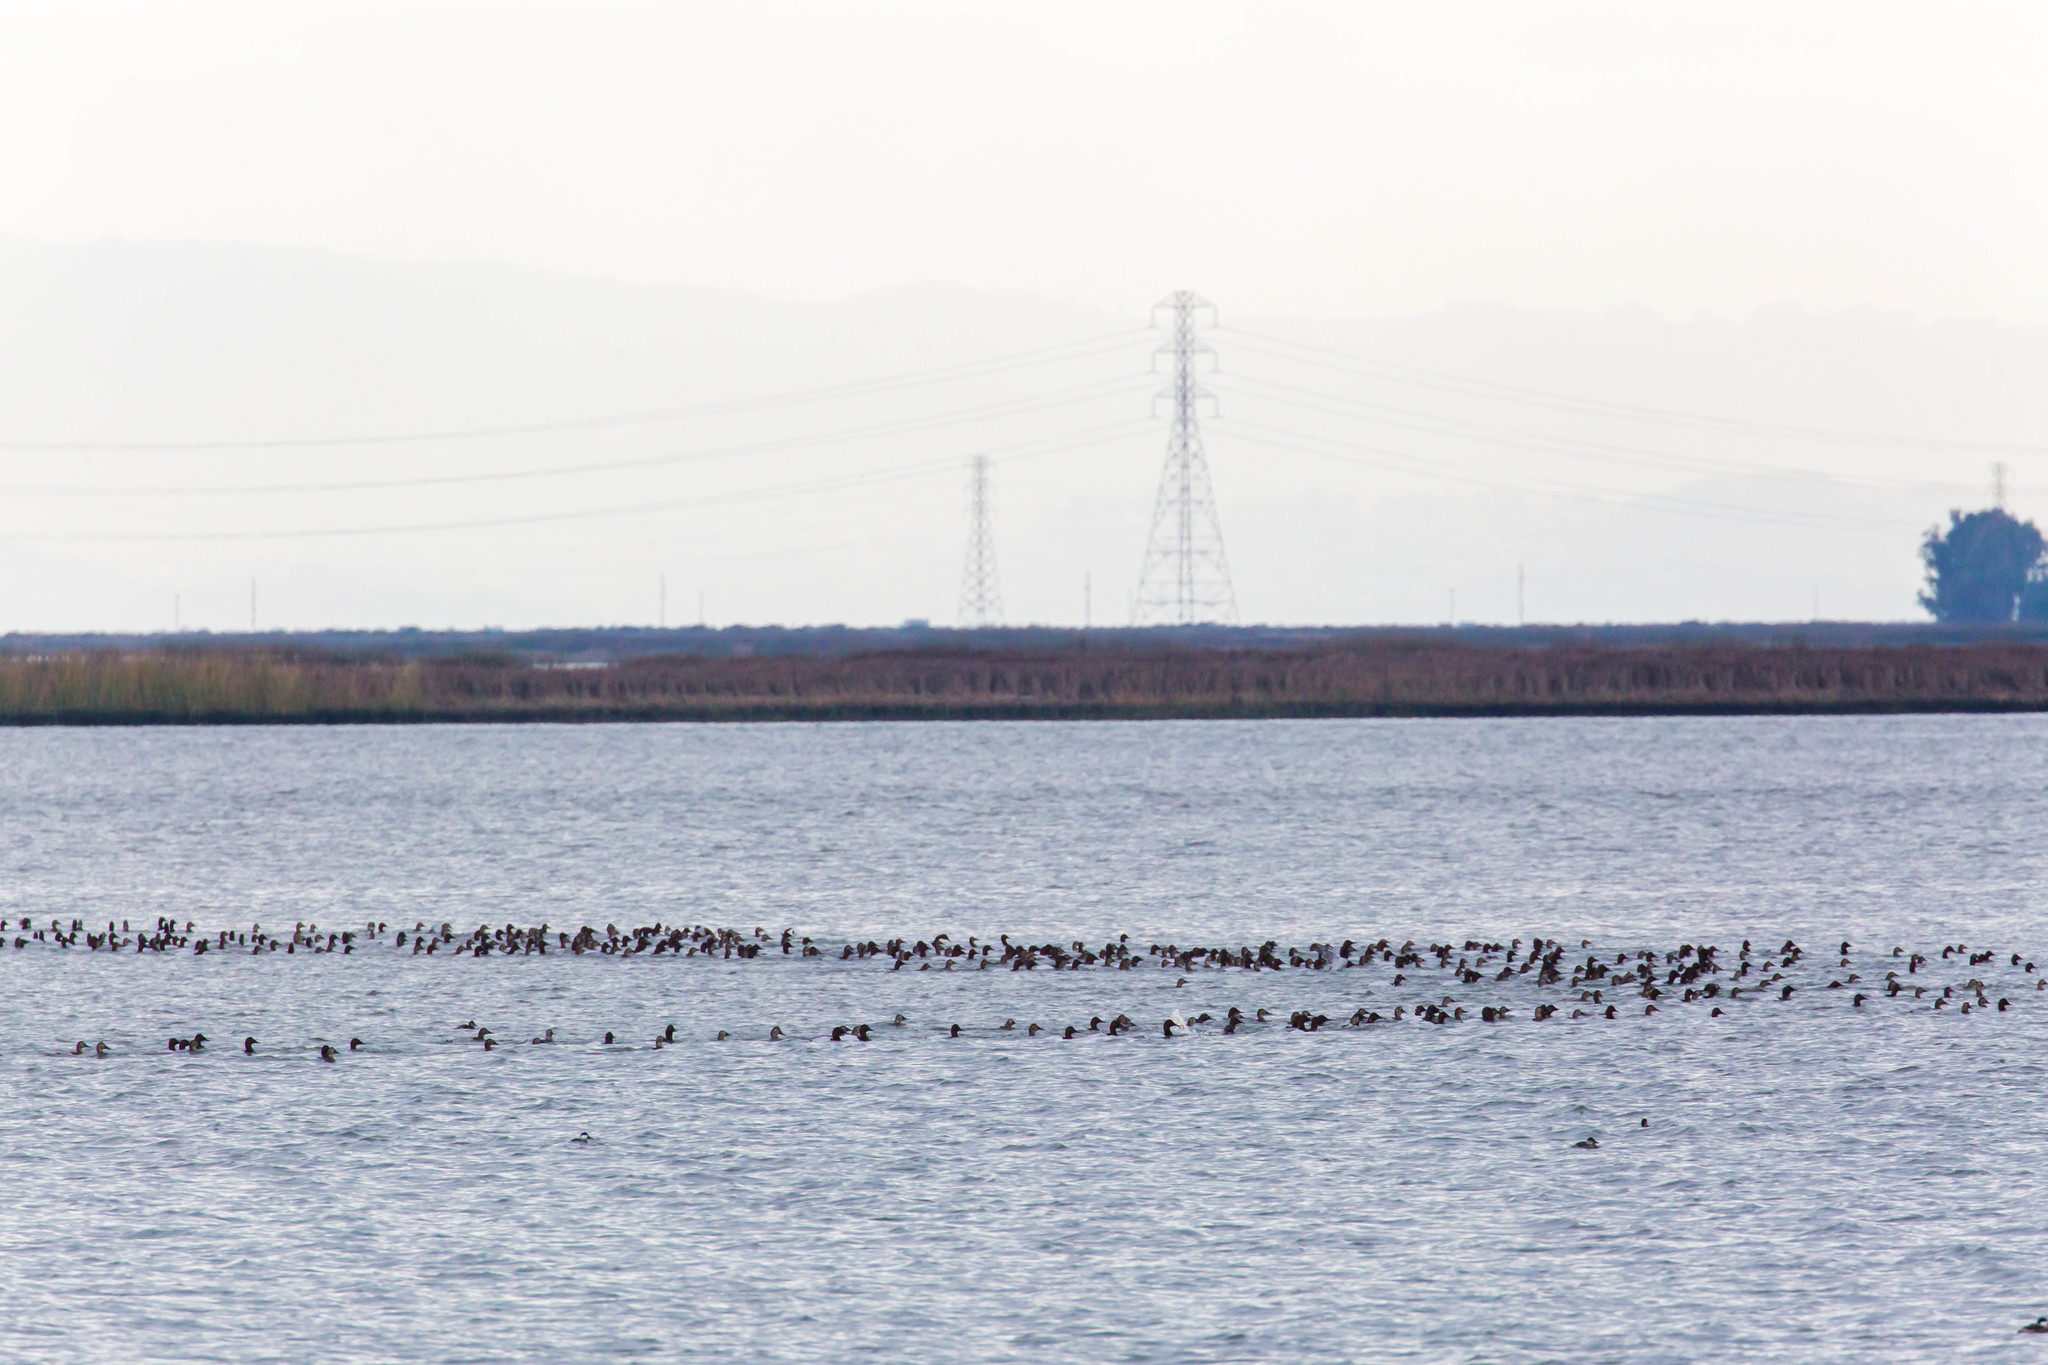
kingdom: Animalia
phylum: Chordata
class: Aves
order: Anseriformes
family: Anatidae
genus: Aythya
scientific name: Aythya valisineria
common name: Canvasback
